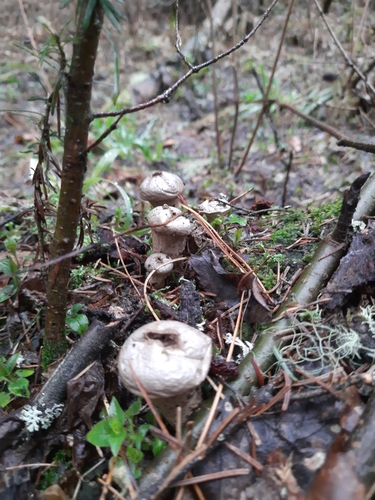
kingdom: Fungi
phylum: Basidiomycota
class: Agaricomycetes
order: Agaricales
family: Lycoperdaceae
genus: Lycoperdon
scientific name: Lycoperdon perlatum
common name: Common puffball
